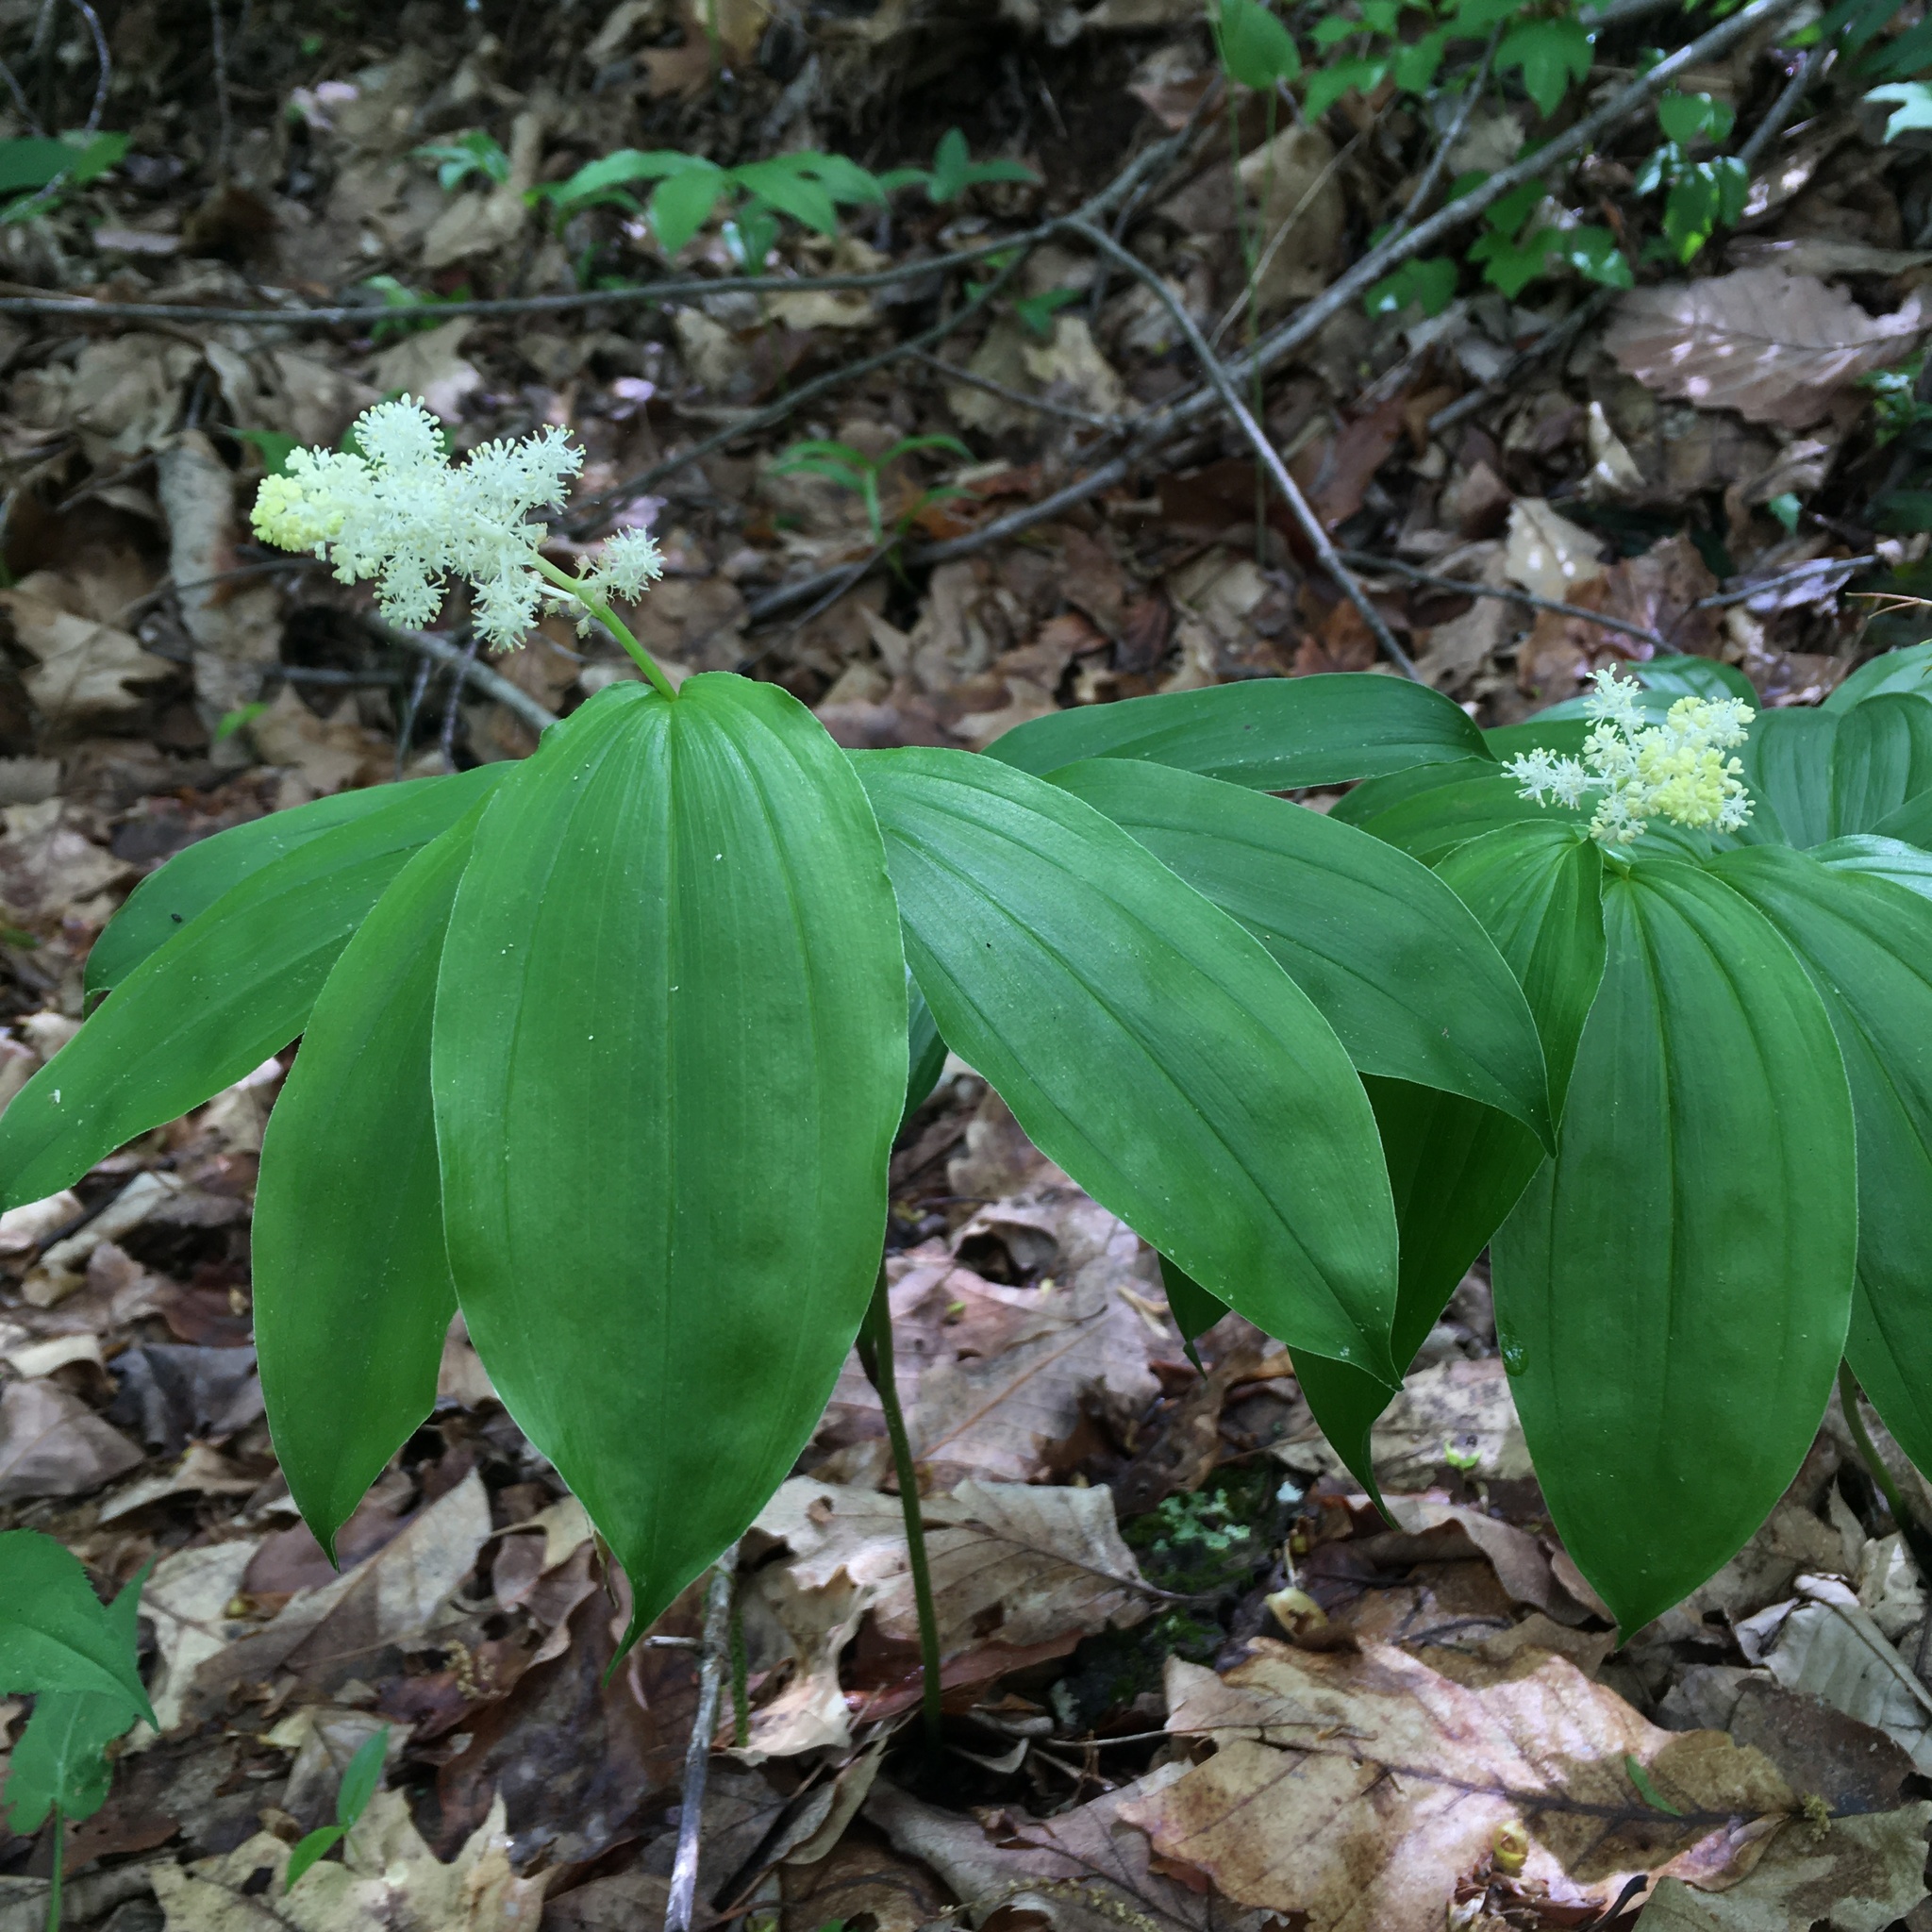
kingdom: Plantae
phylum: Tracheophyta
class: Liliopsida
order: Asparagales
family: Asparagaceae
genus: Maianthemum
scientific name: Maianthemum racemosum
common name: False spikenard
